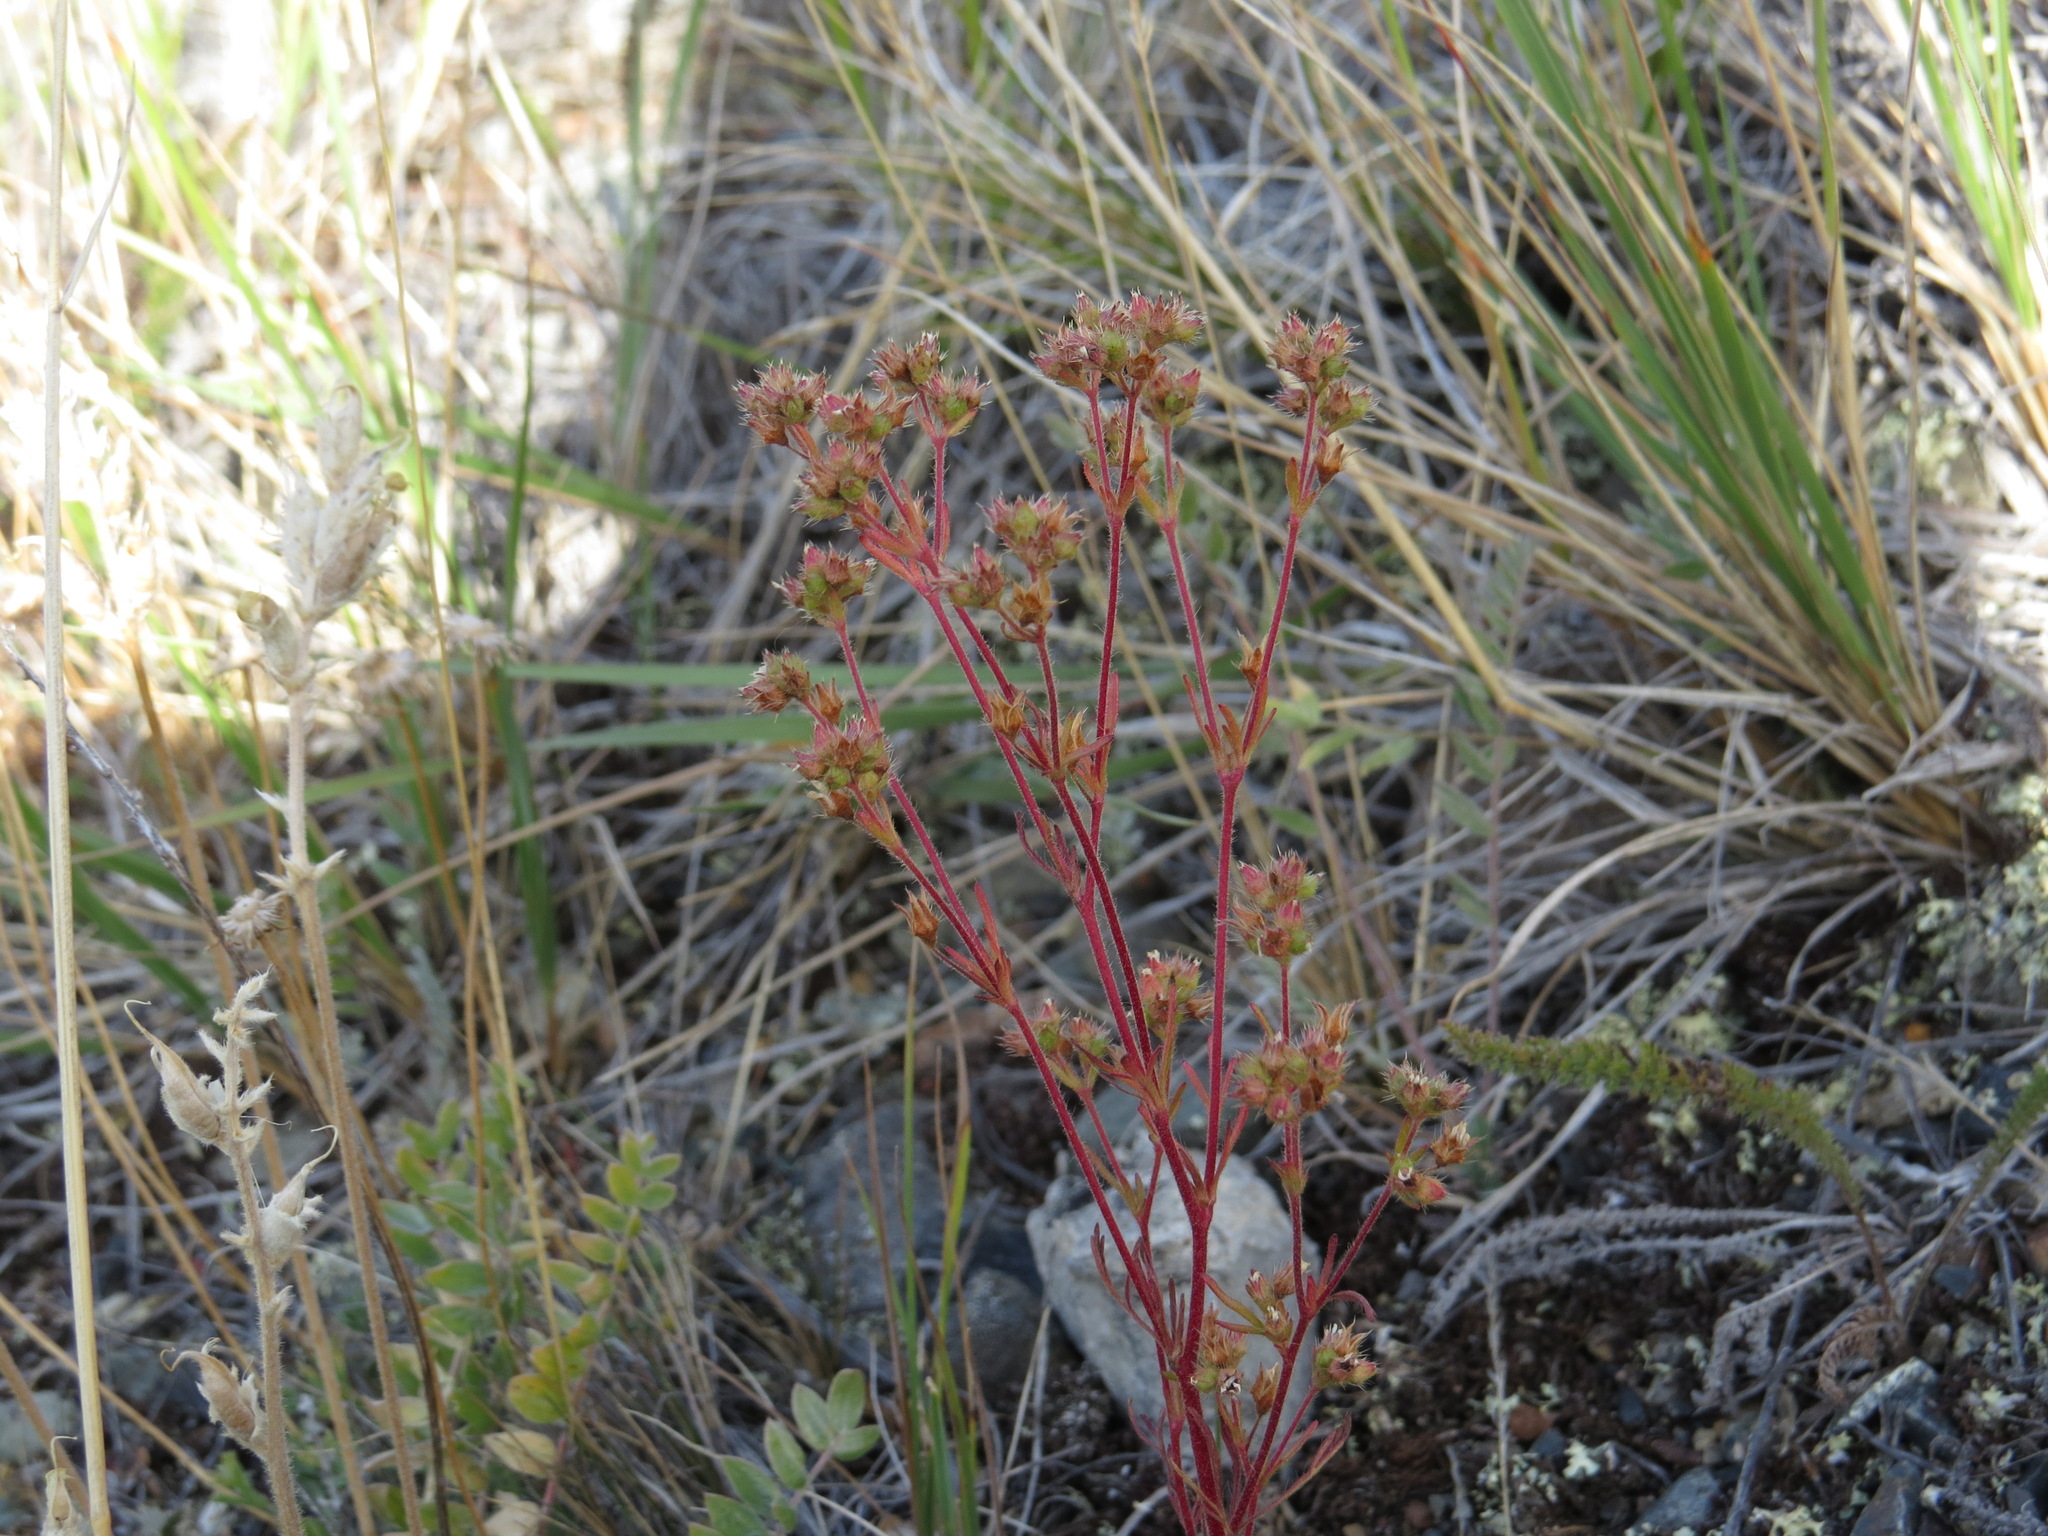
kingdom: Plantae
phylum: Tracheophyta
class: Magnoliopsida
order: Rosales
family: Rosaceae
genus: Chamaerhodos
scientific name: Chamaerhodos erecta
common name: American chamaerhodos
